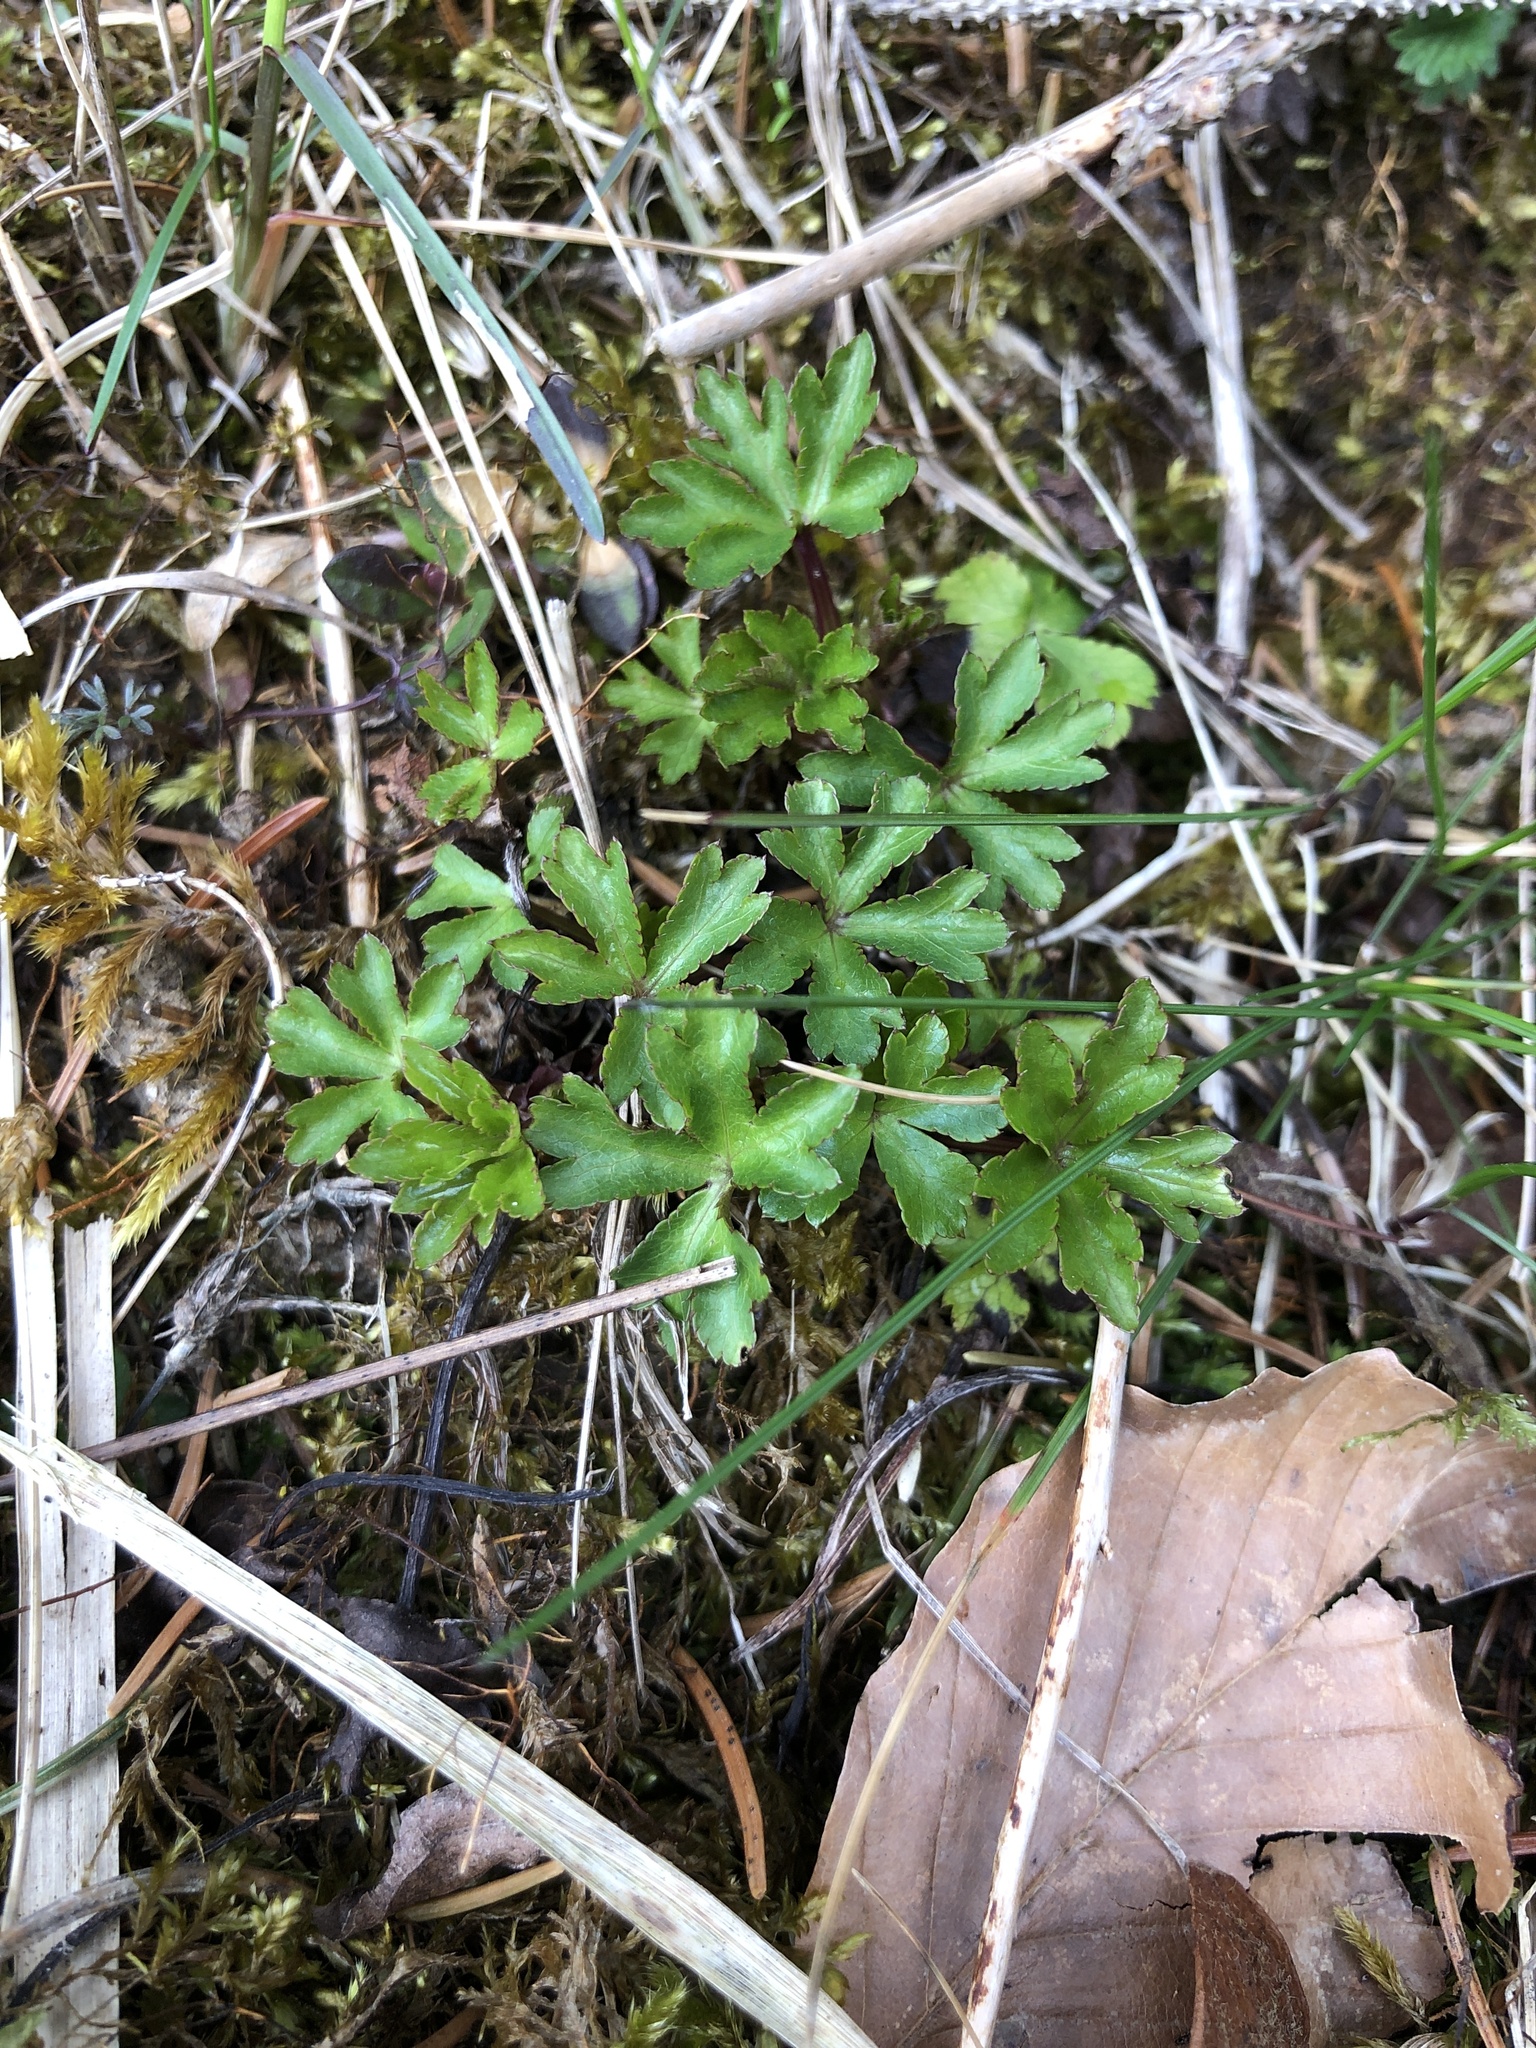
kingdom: Plantae
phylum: Tracheophyta
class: Magnoliopsida
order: Apiales
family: Apiaceae
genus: Sanicula
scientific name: Sanicula europaea
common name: Sanicle
